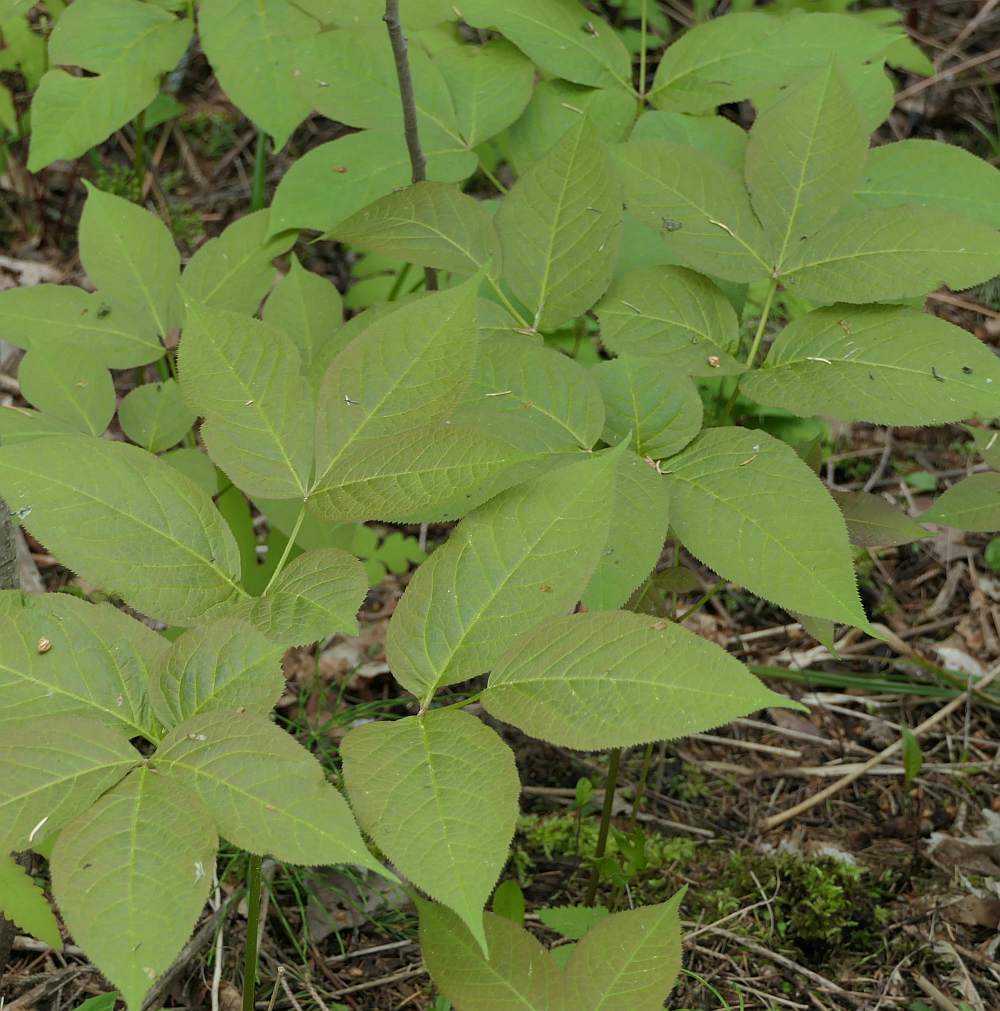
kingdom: Plantae
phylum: Tracheophyta
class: Magnoliopsida
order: Apiales
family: Araliaceae
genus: Aralia
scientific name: Aralia nudicaulis
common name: Wild sarsaparilla
